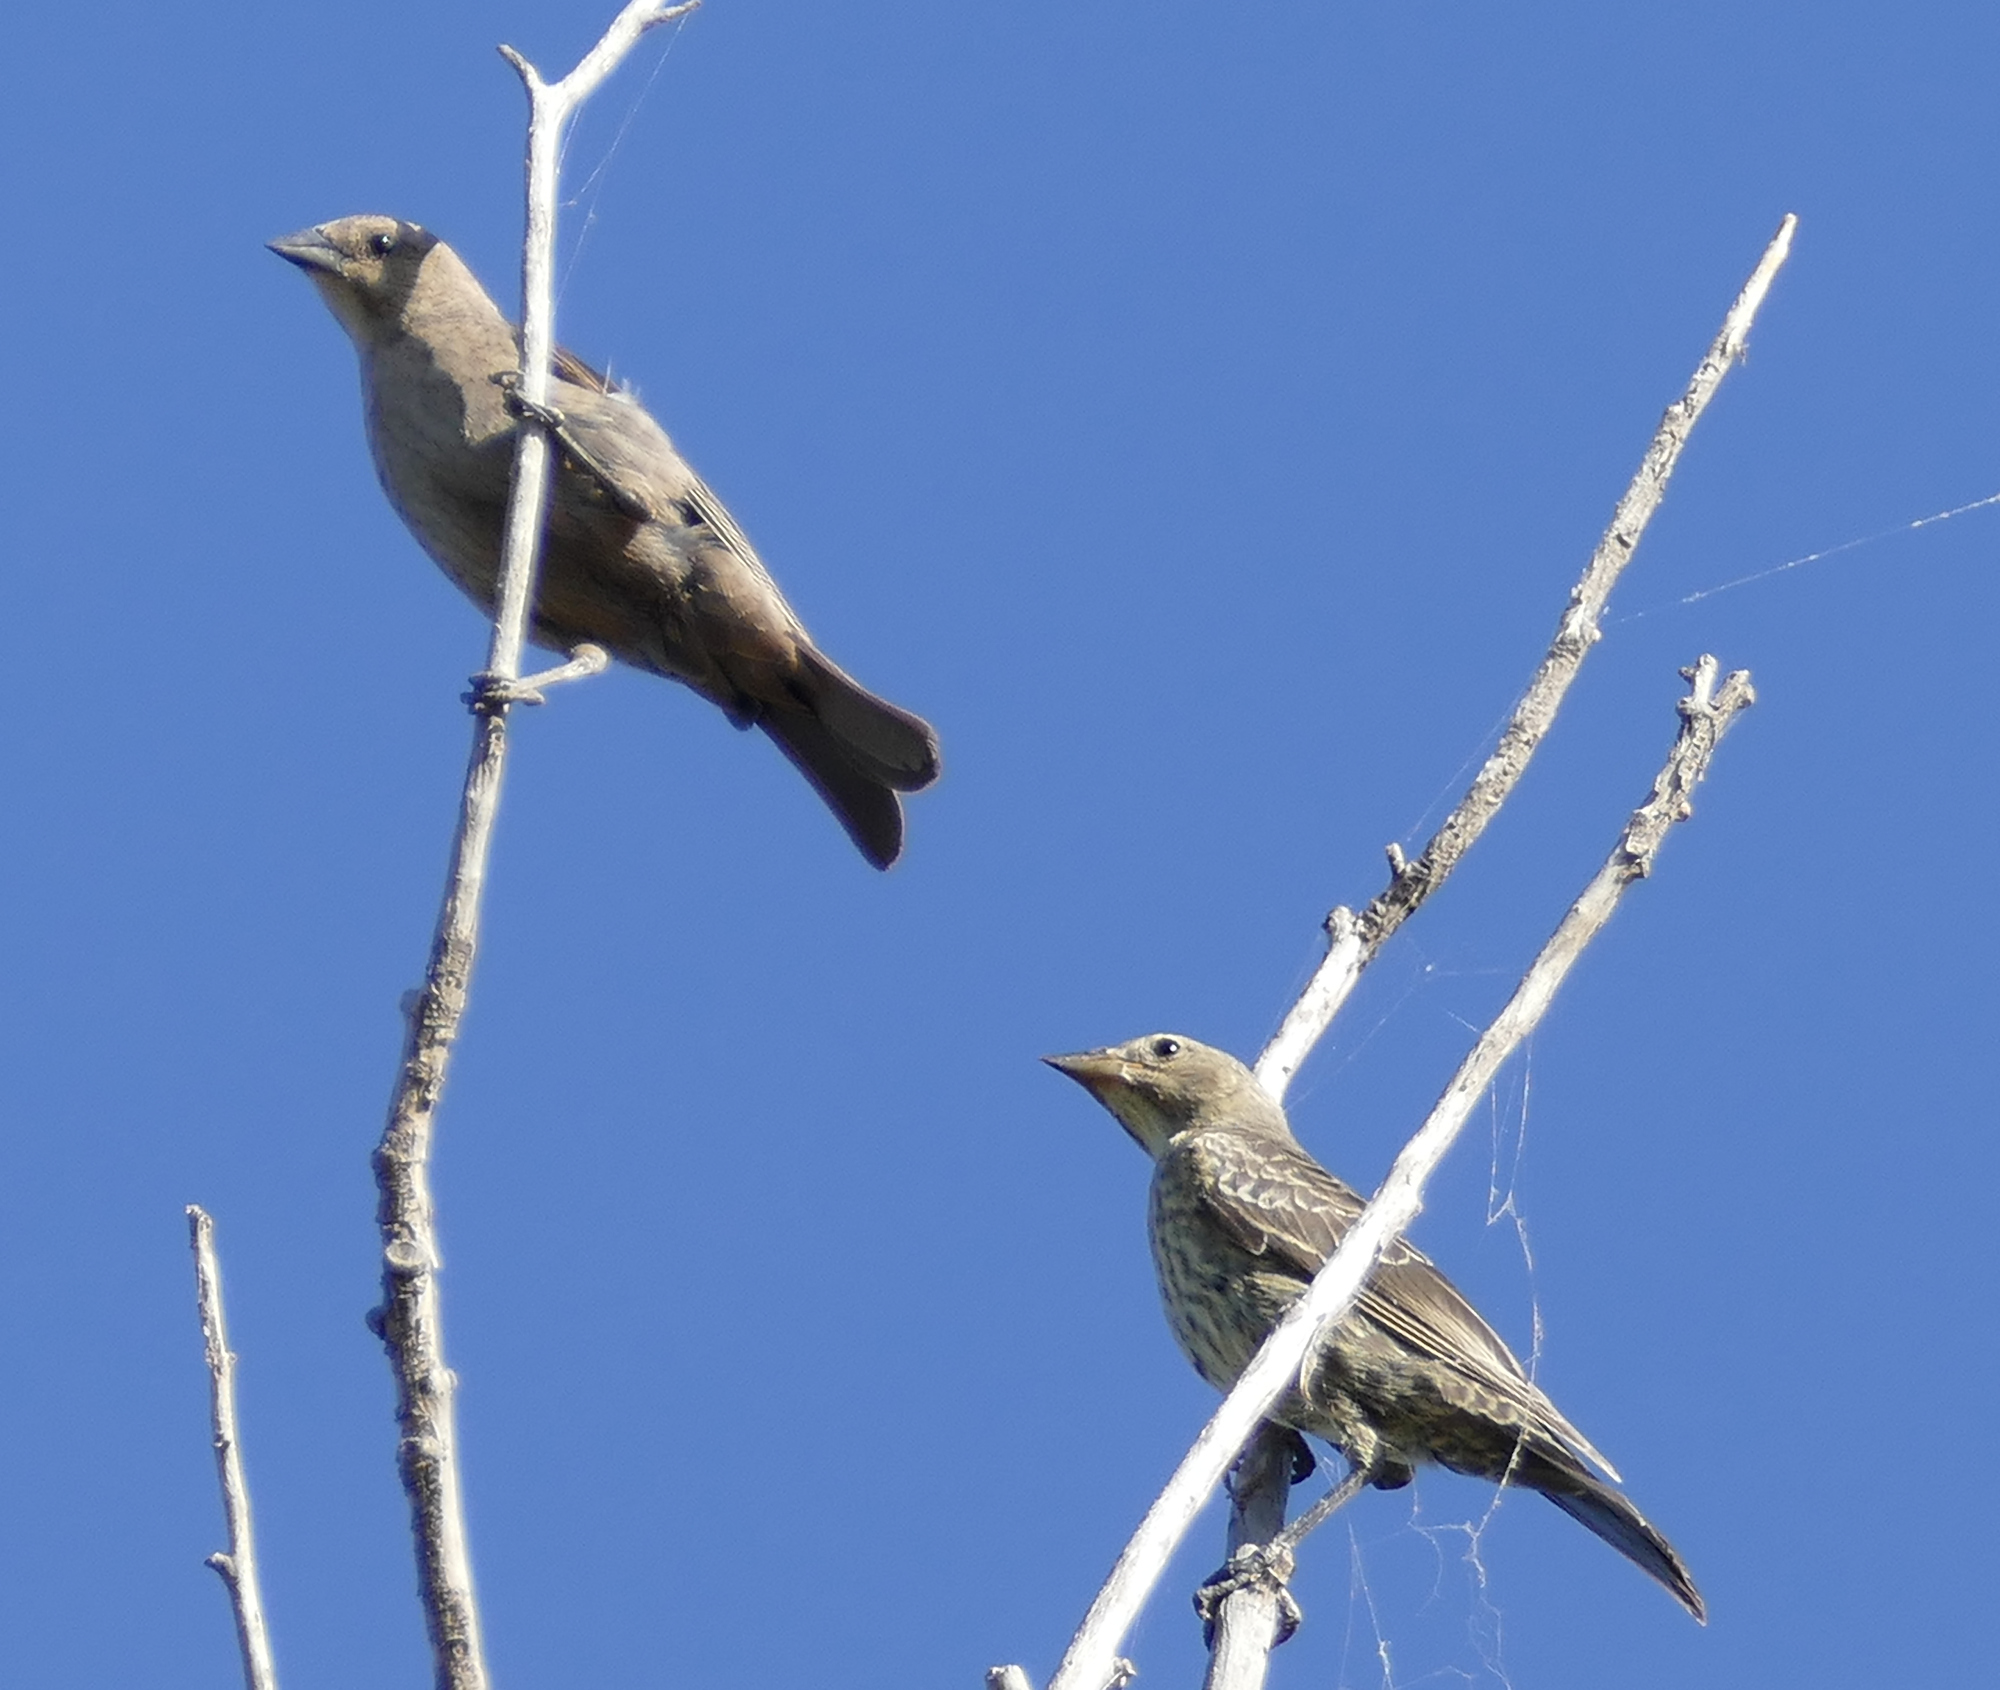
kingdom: Animalia
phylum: Chordata
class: Aves
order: Passeriformes
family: Icteridae
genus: Molothrus
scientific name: Molothrus ater
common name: Brown-headed cowbird
